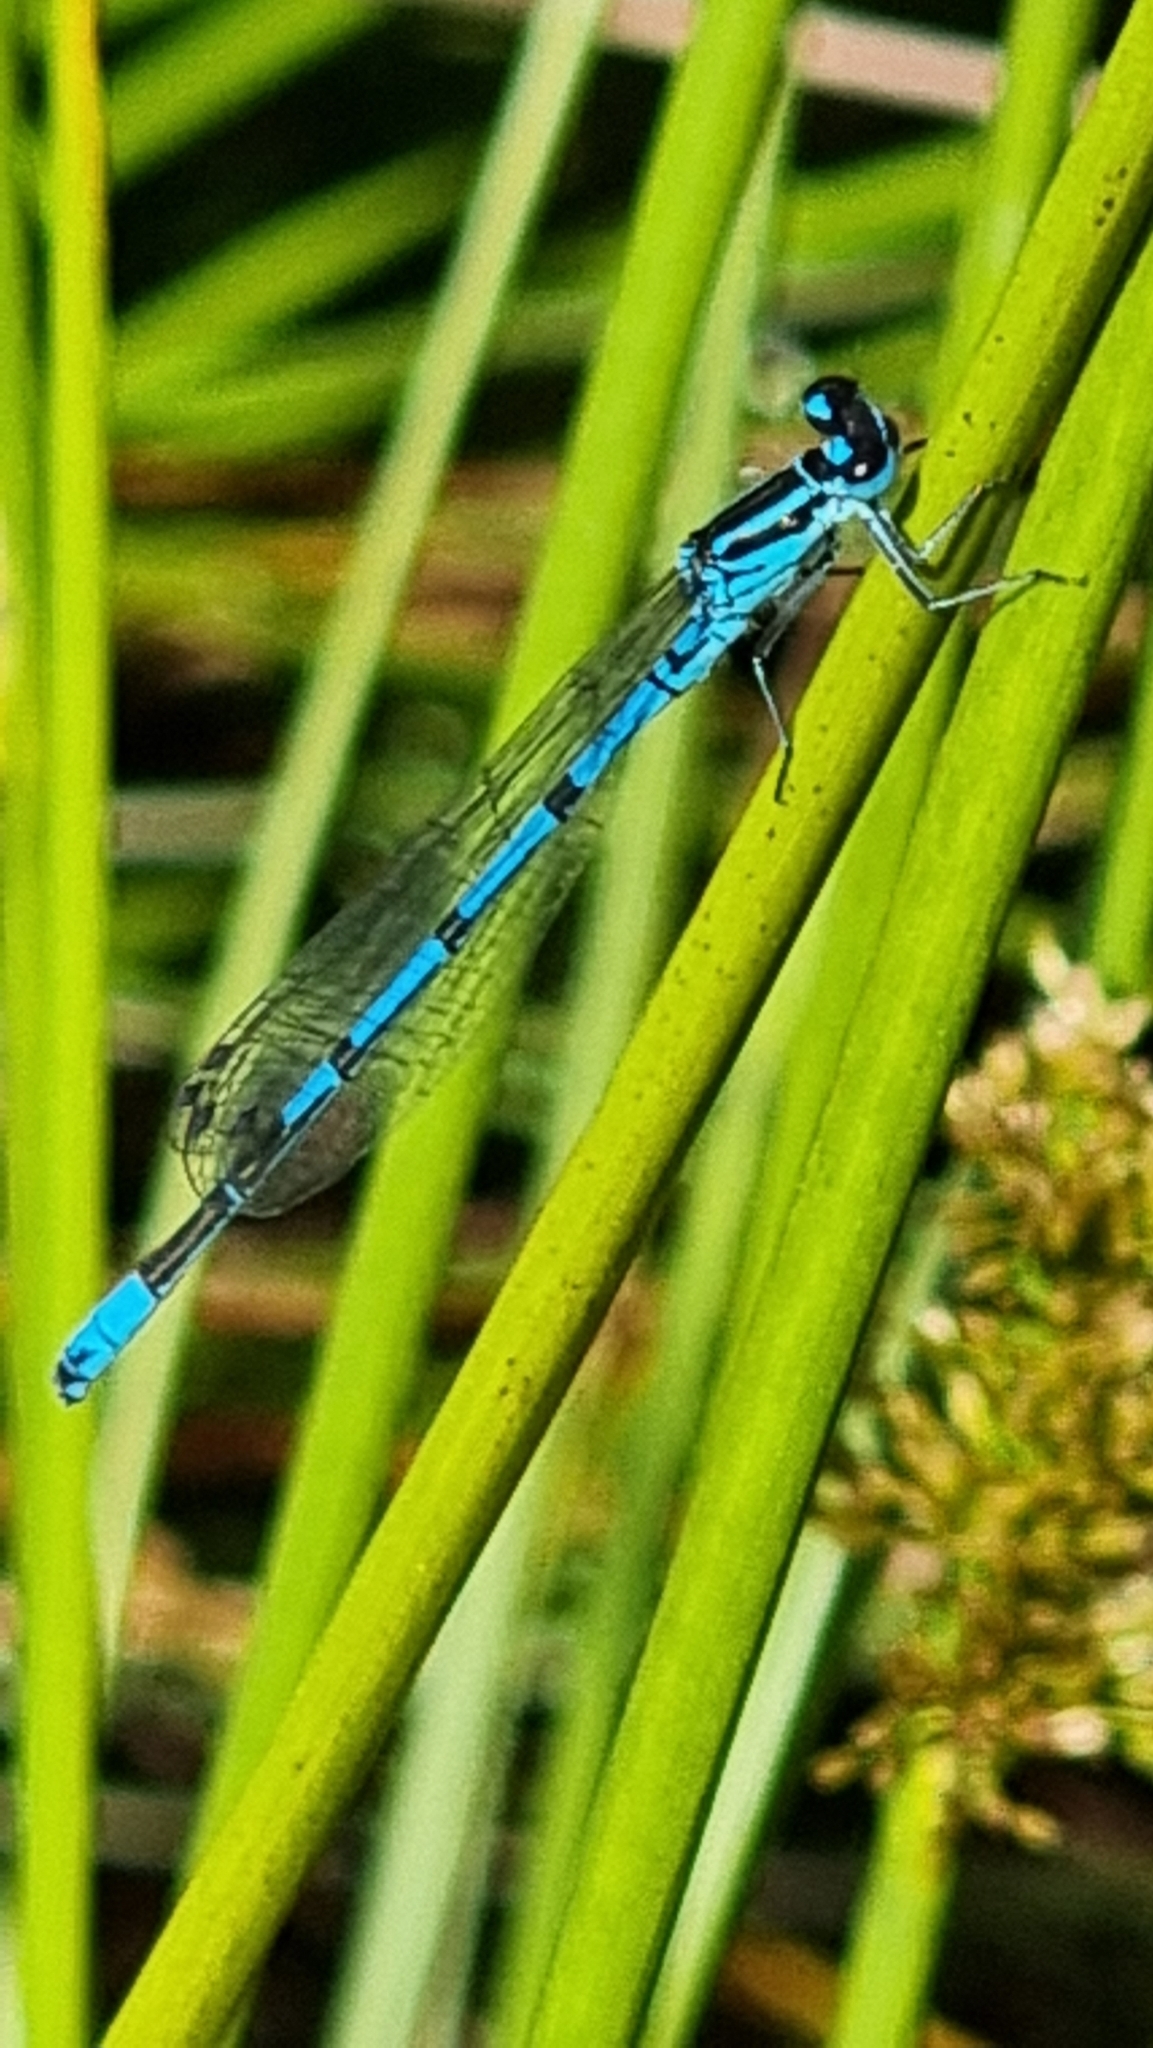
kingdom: Animalia
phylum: Arthropoda
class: Insecta
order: Odonata
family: Coenagrionidae
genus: Coenagrion
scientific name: Coenagrion puella
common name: Azure damselfly
